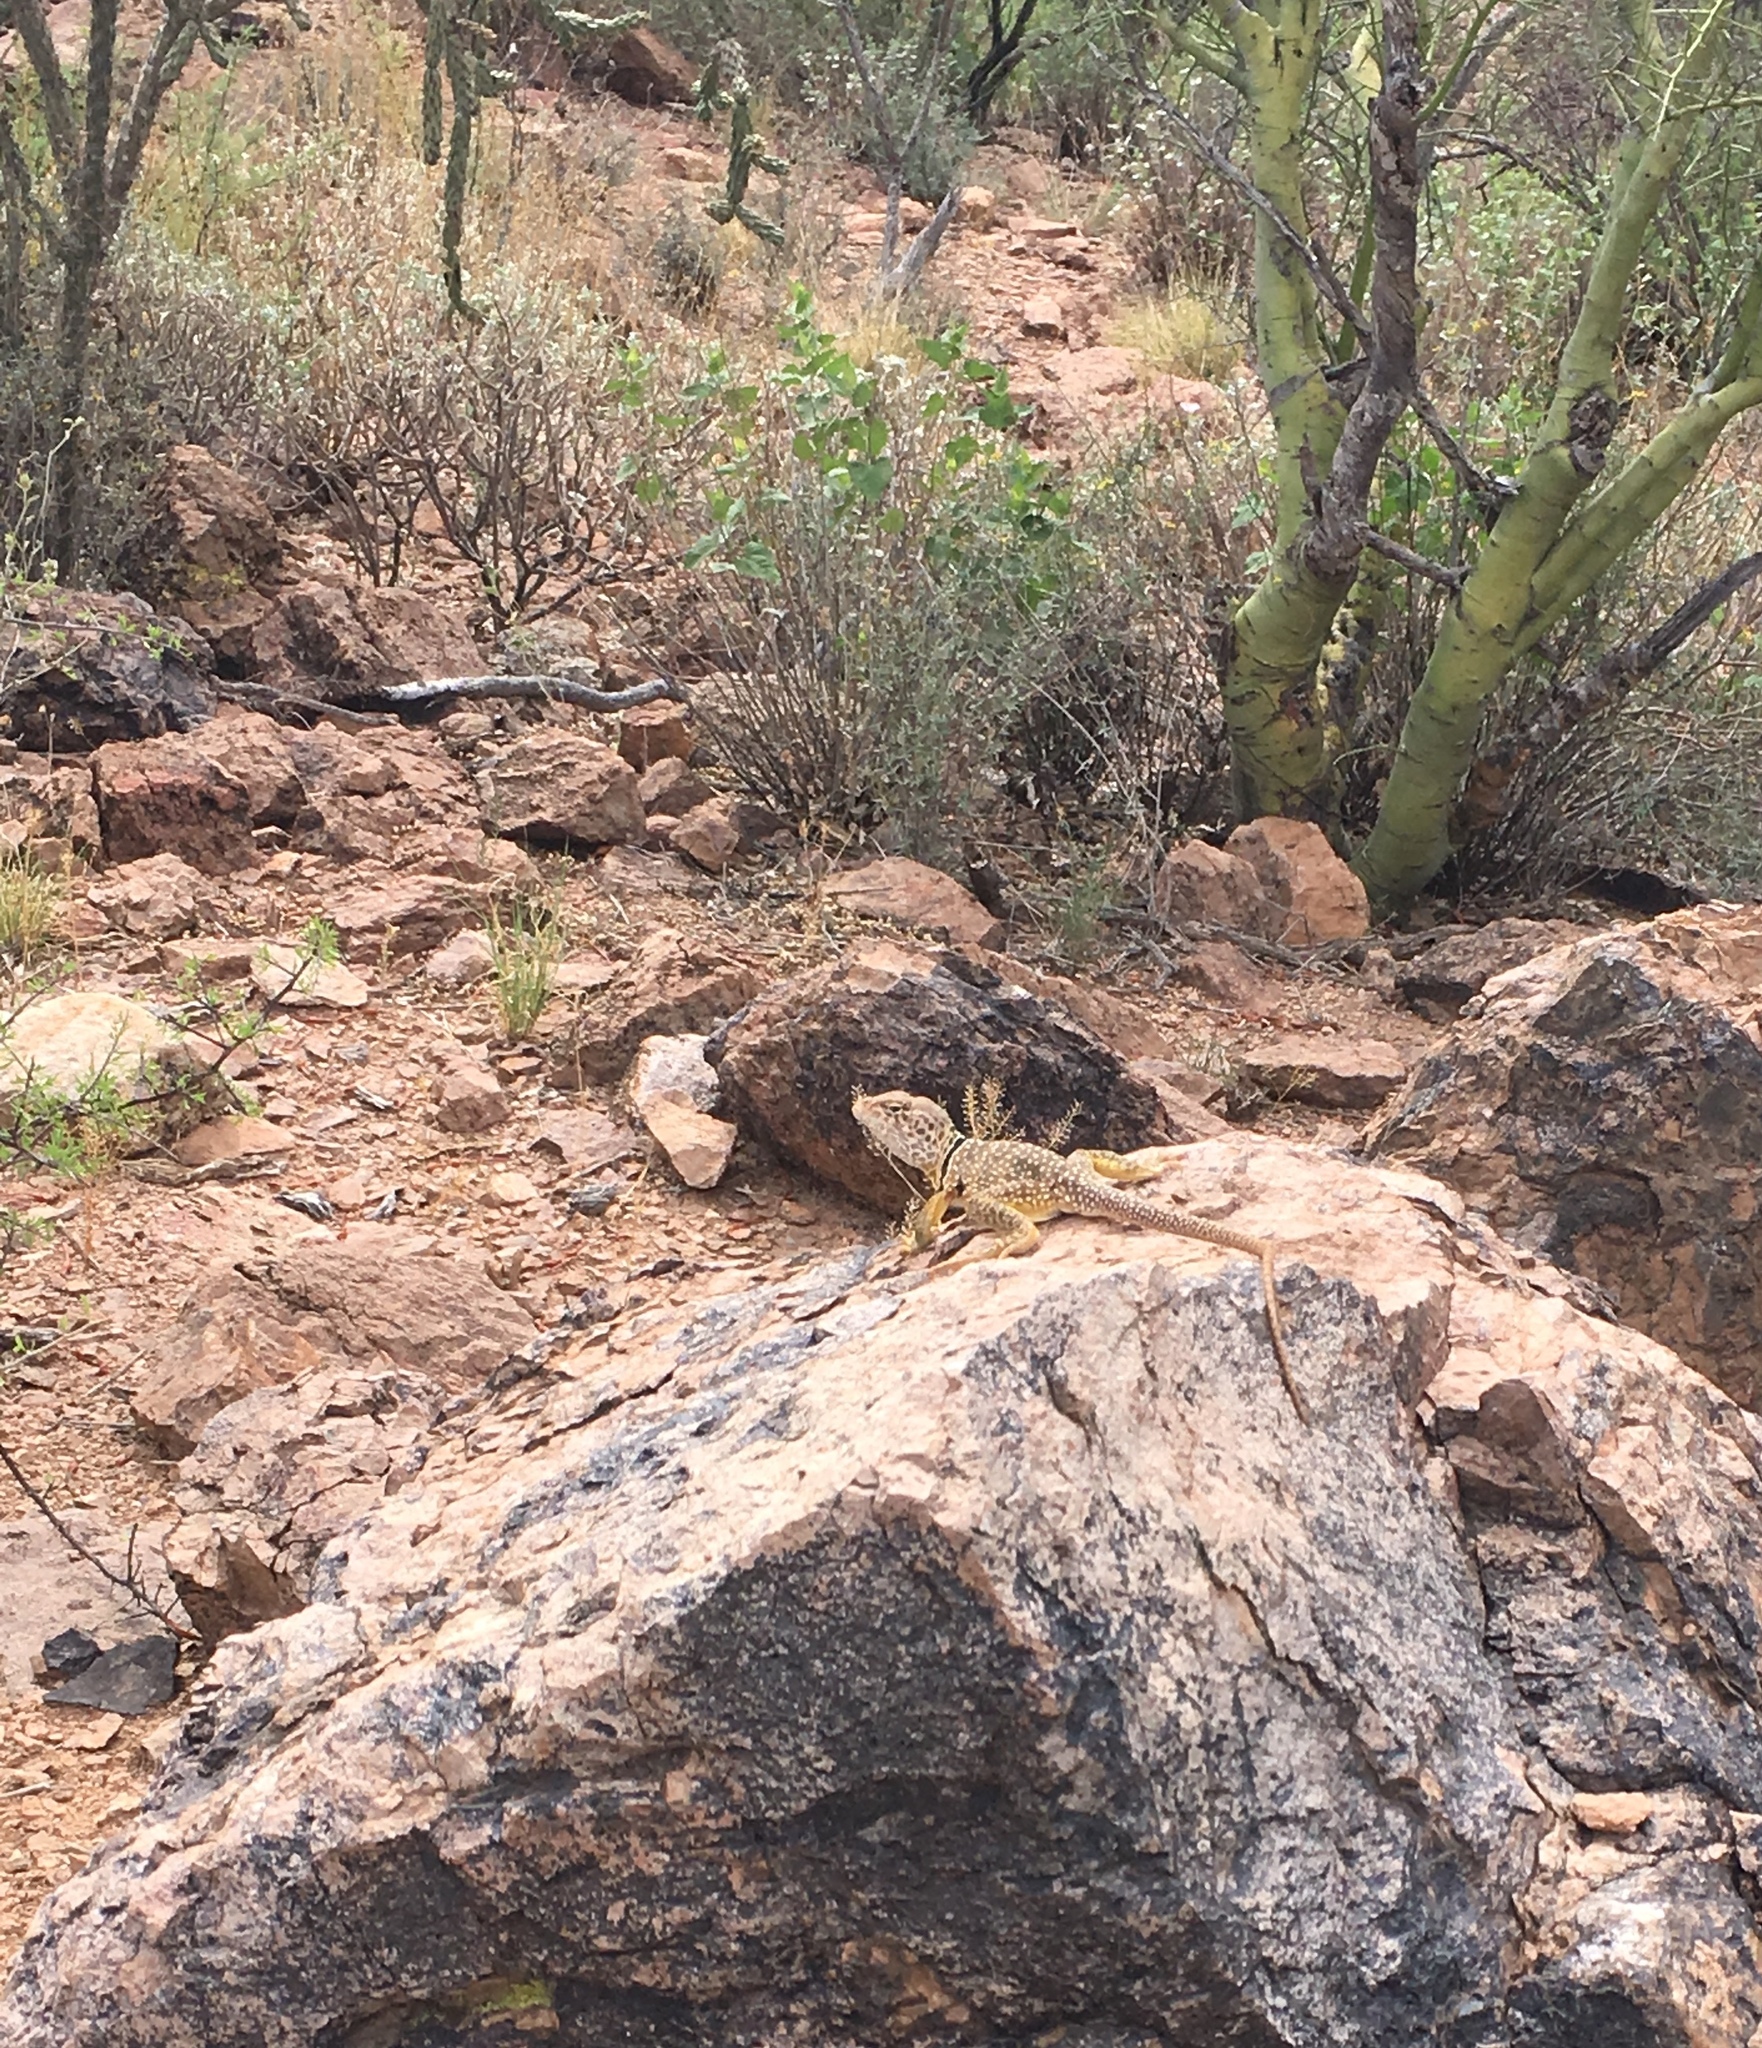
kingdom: Animalia
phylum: Chordata
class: Squamata
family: Crotaphytidae
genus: Crotaphytus
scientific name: Crotaphytus nebrius
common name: Sonoran collared lizard
